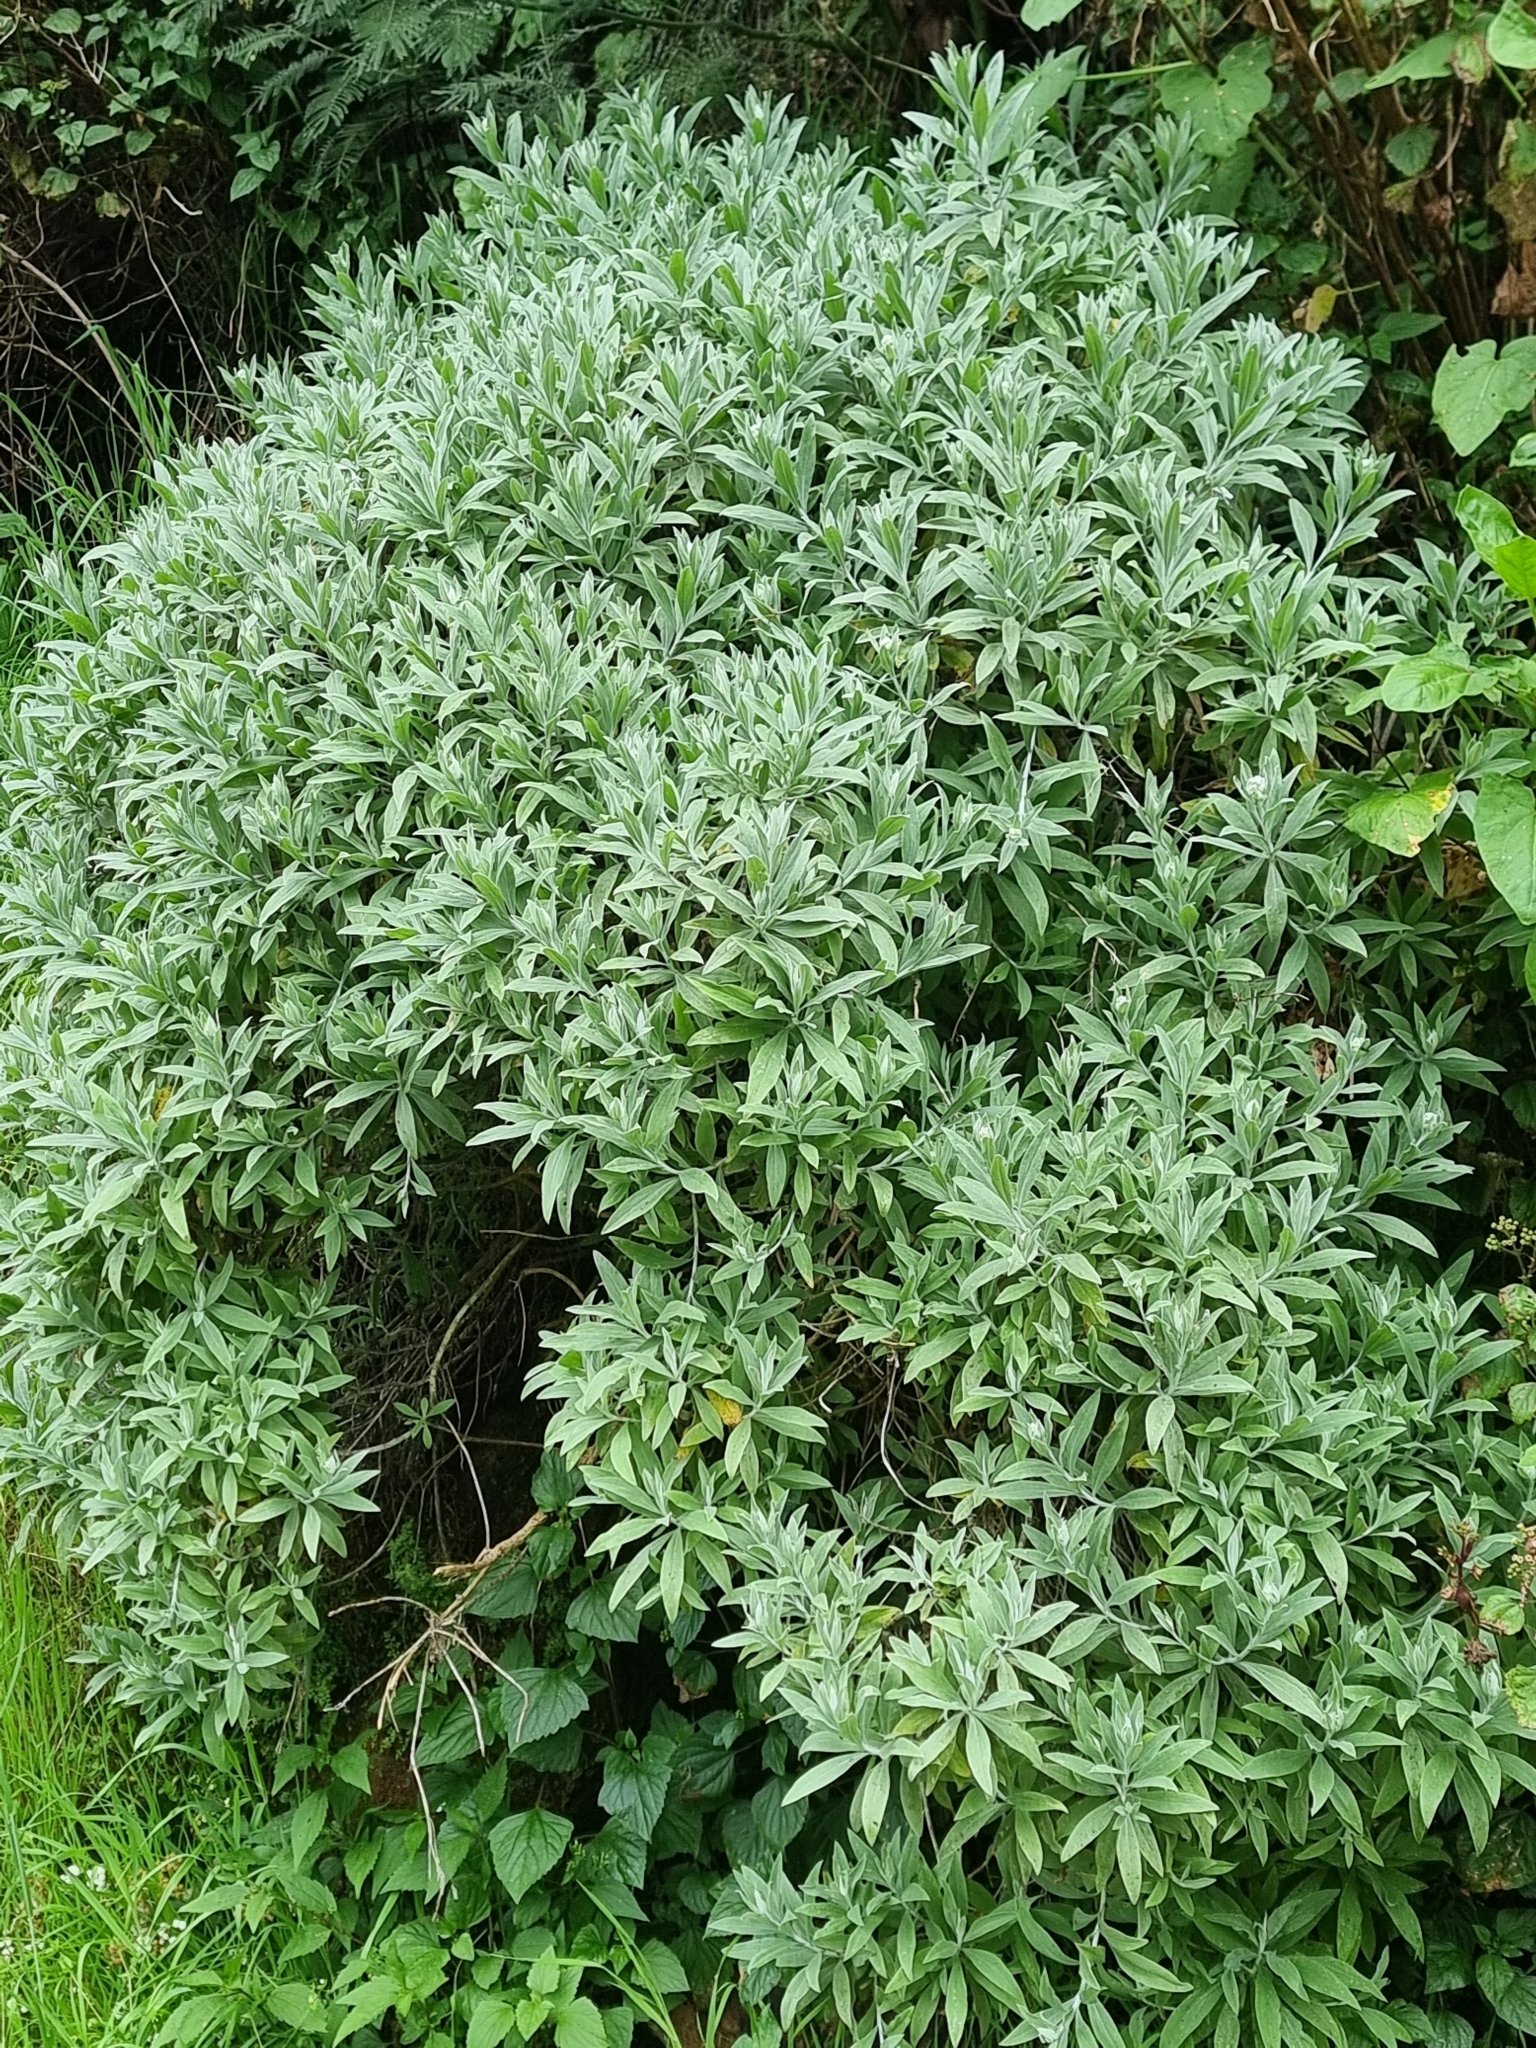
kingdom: Plantae
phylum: Tracheophyta
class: Magnoliopsida
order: Asterales
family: Asteraceae
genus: Helichrysum
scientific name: Helichrysum melaleucum
